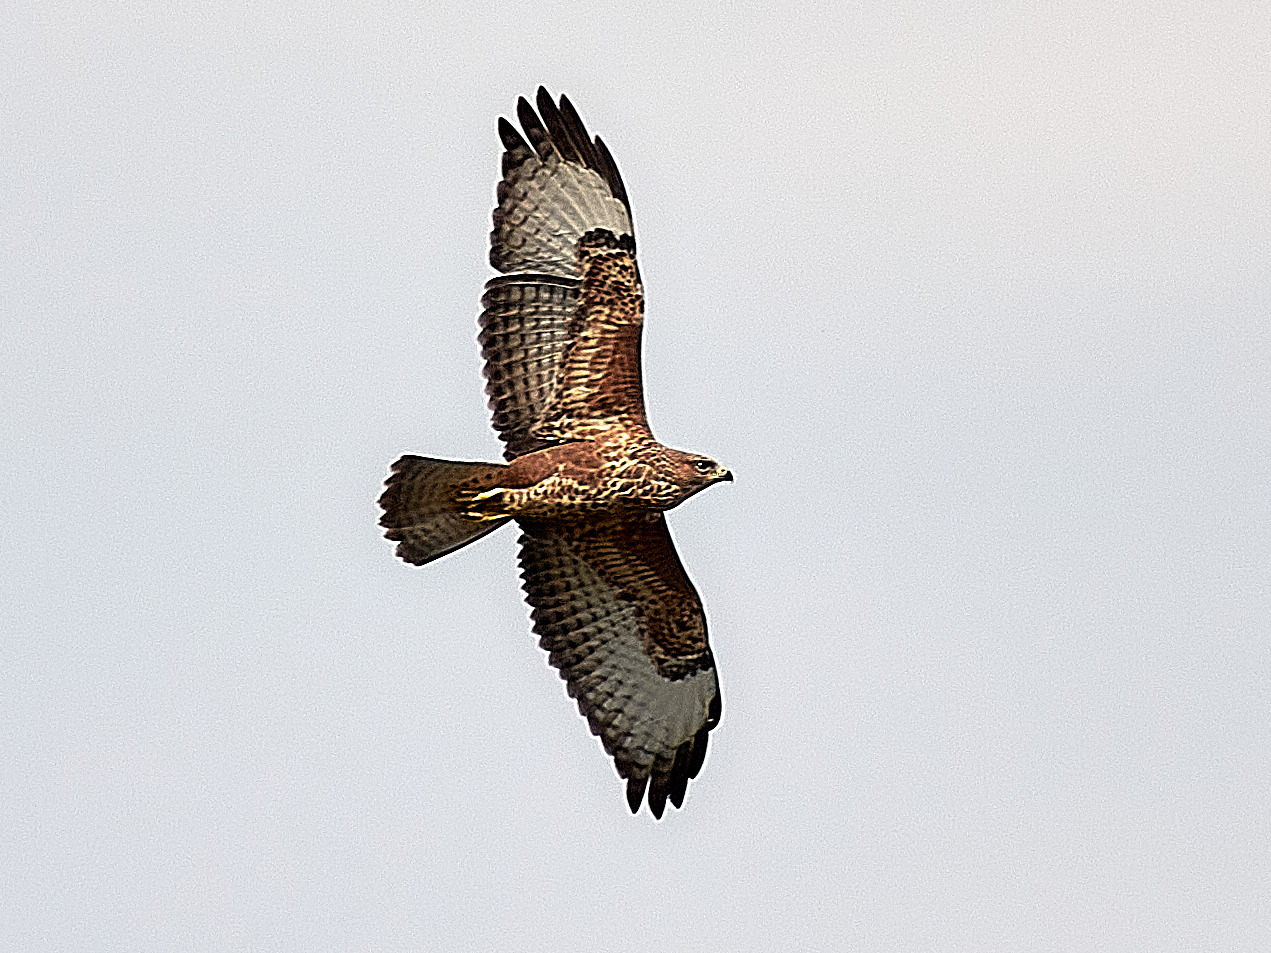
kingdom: Animalia
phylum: Chordata
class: Aves
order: Accipitriformes
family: Accipitridae
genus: Buteo
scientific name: Buteo buteo
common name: Common buzzard
